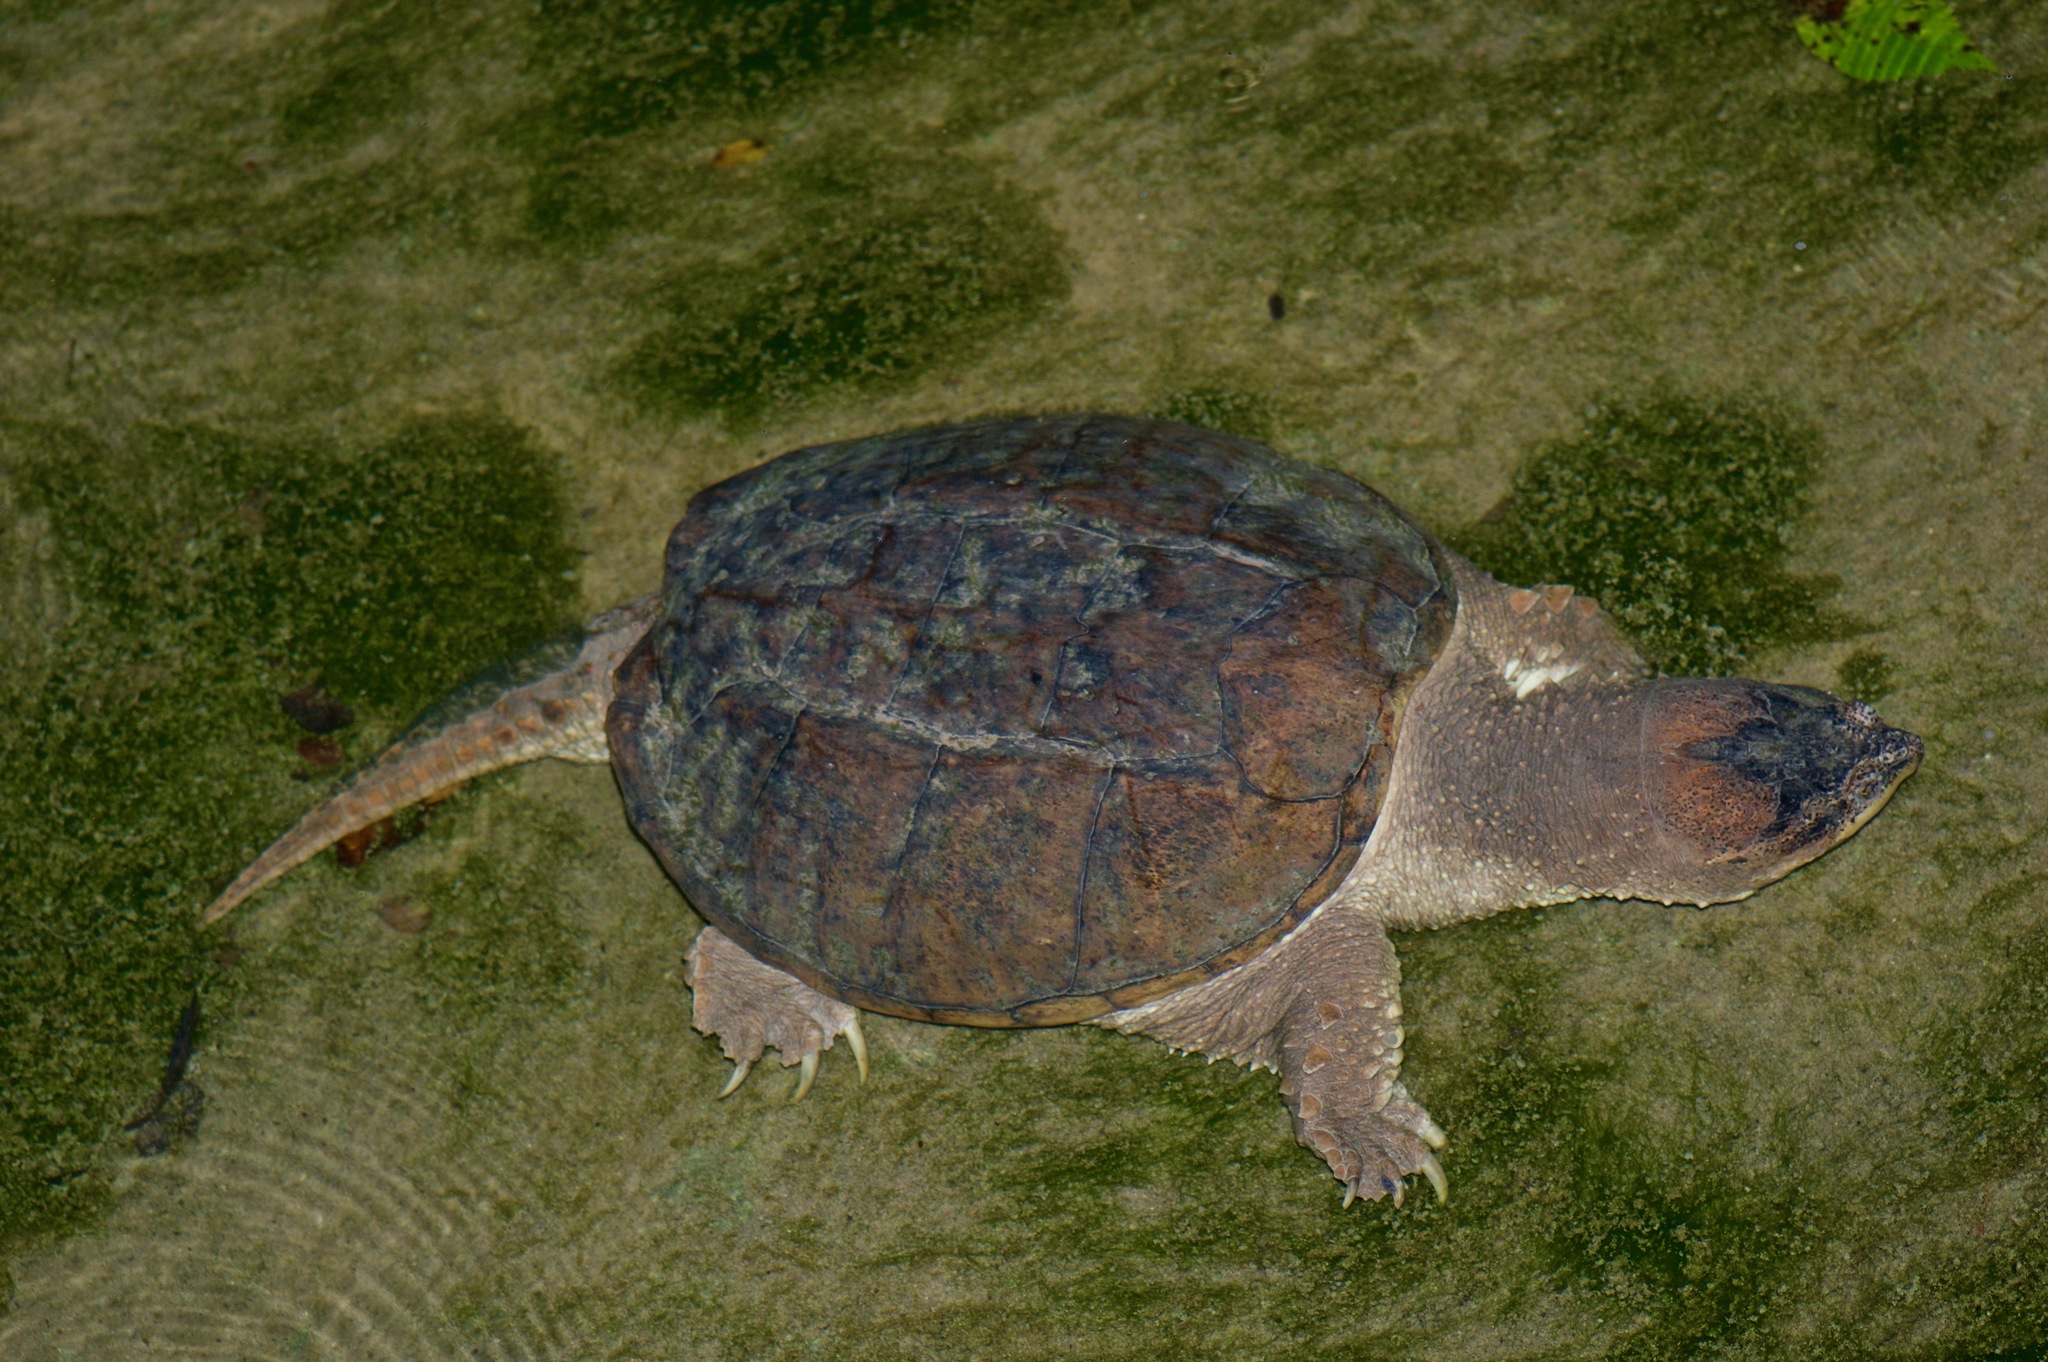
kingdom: Animalia
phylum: Chordata
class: Testudines
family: Chelydridae
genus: Chelydra
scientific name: Chelydra serpentina
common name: Common snapping turtle
